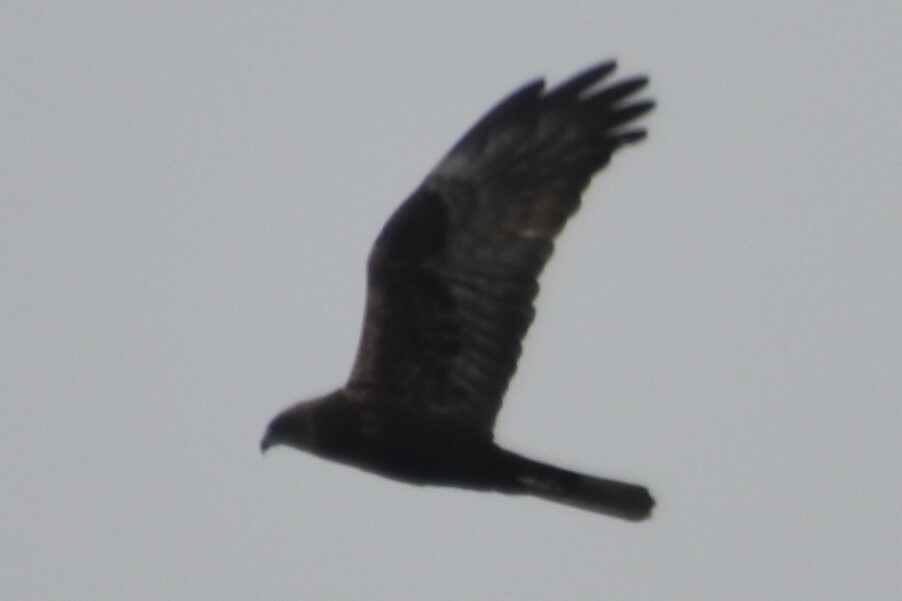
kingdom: Animalia
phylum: Chordata
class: Aves
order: Accipitriformes
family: Accipitridae
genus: Circus
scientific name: Circus aeruginosus
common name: Western marsh harrier
